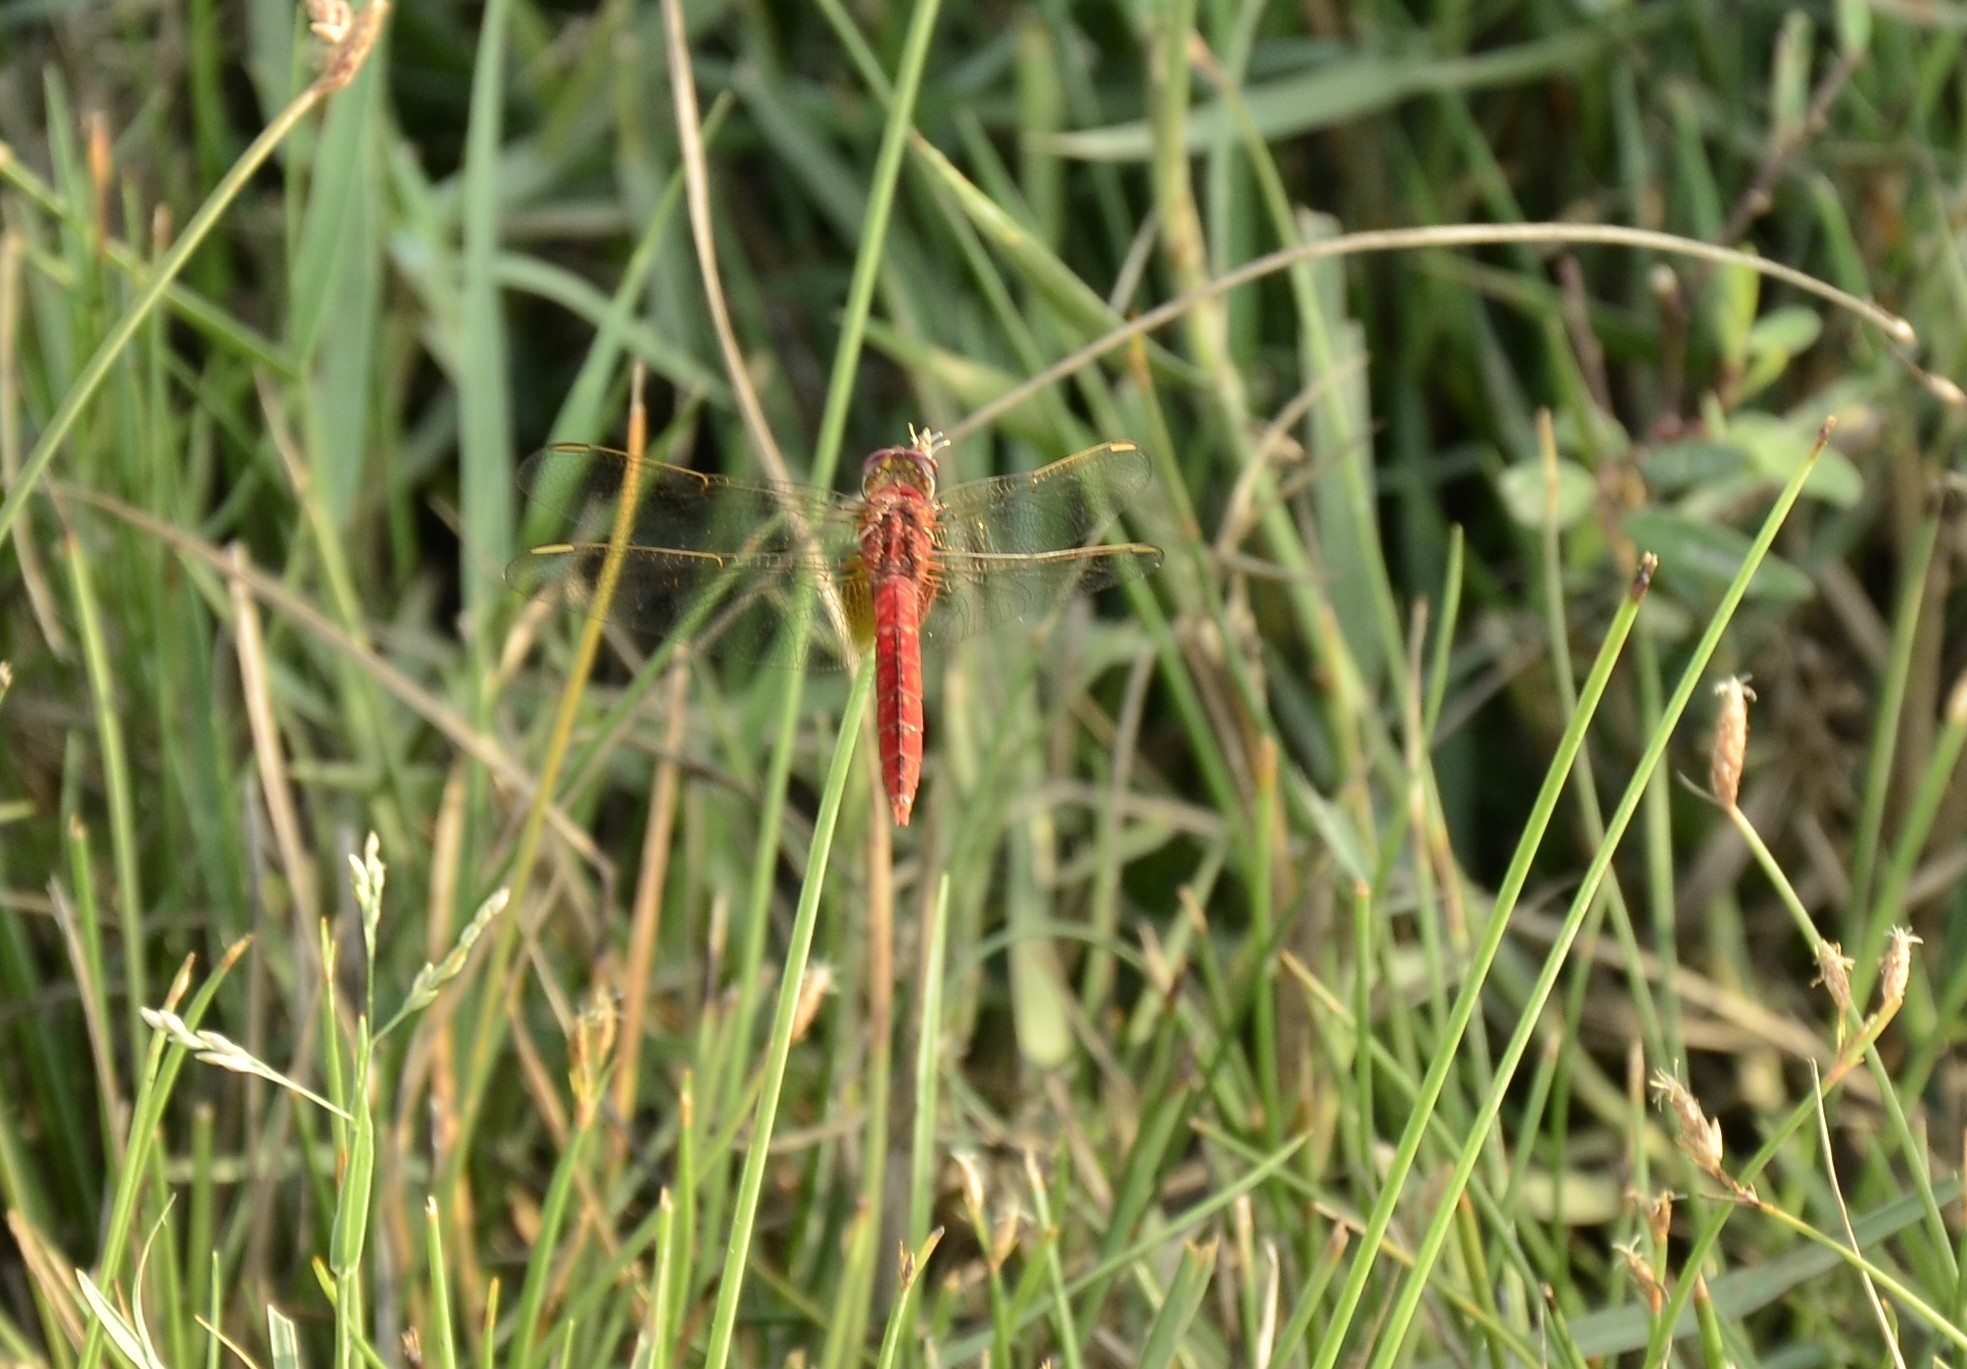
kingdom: Animalia
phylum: Arthropoda
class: Insecta
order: Odonata
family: Libellulidae
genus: Crocothemis
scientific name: Crocothemis servilia
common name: Scarlet skimmer
